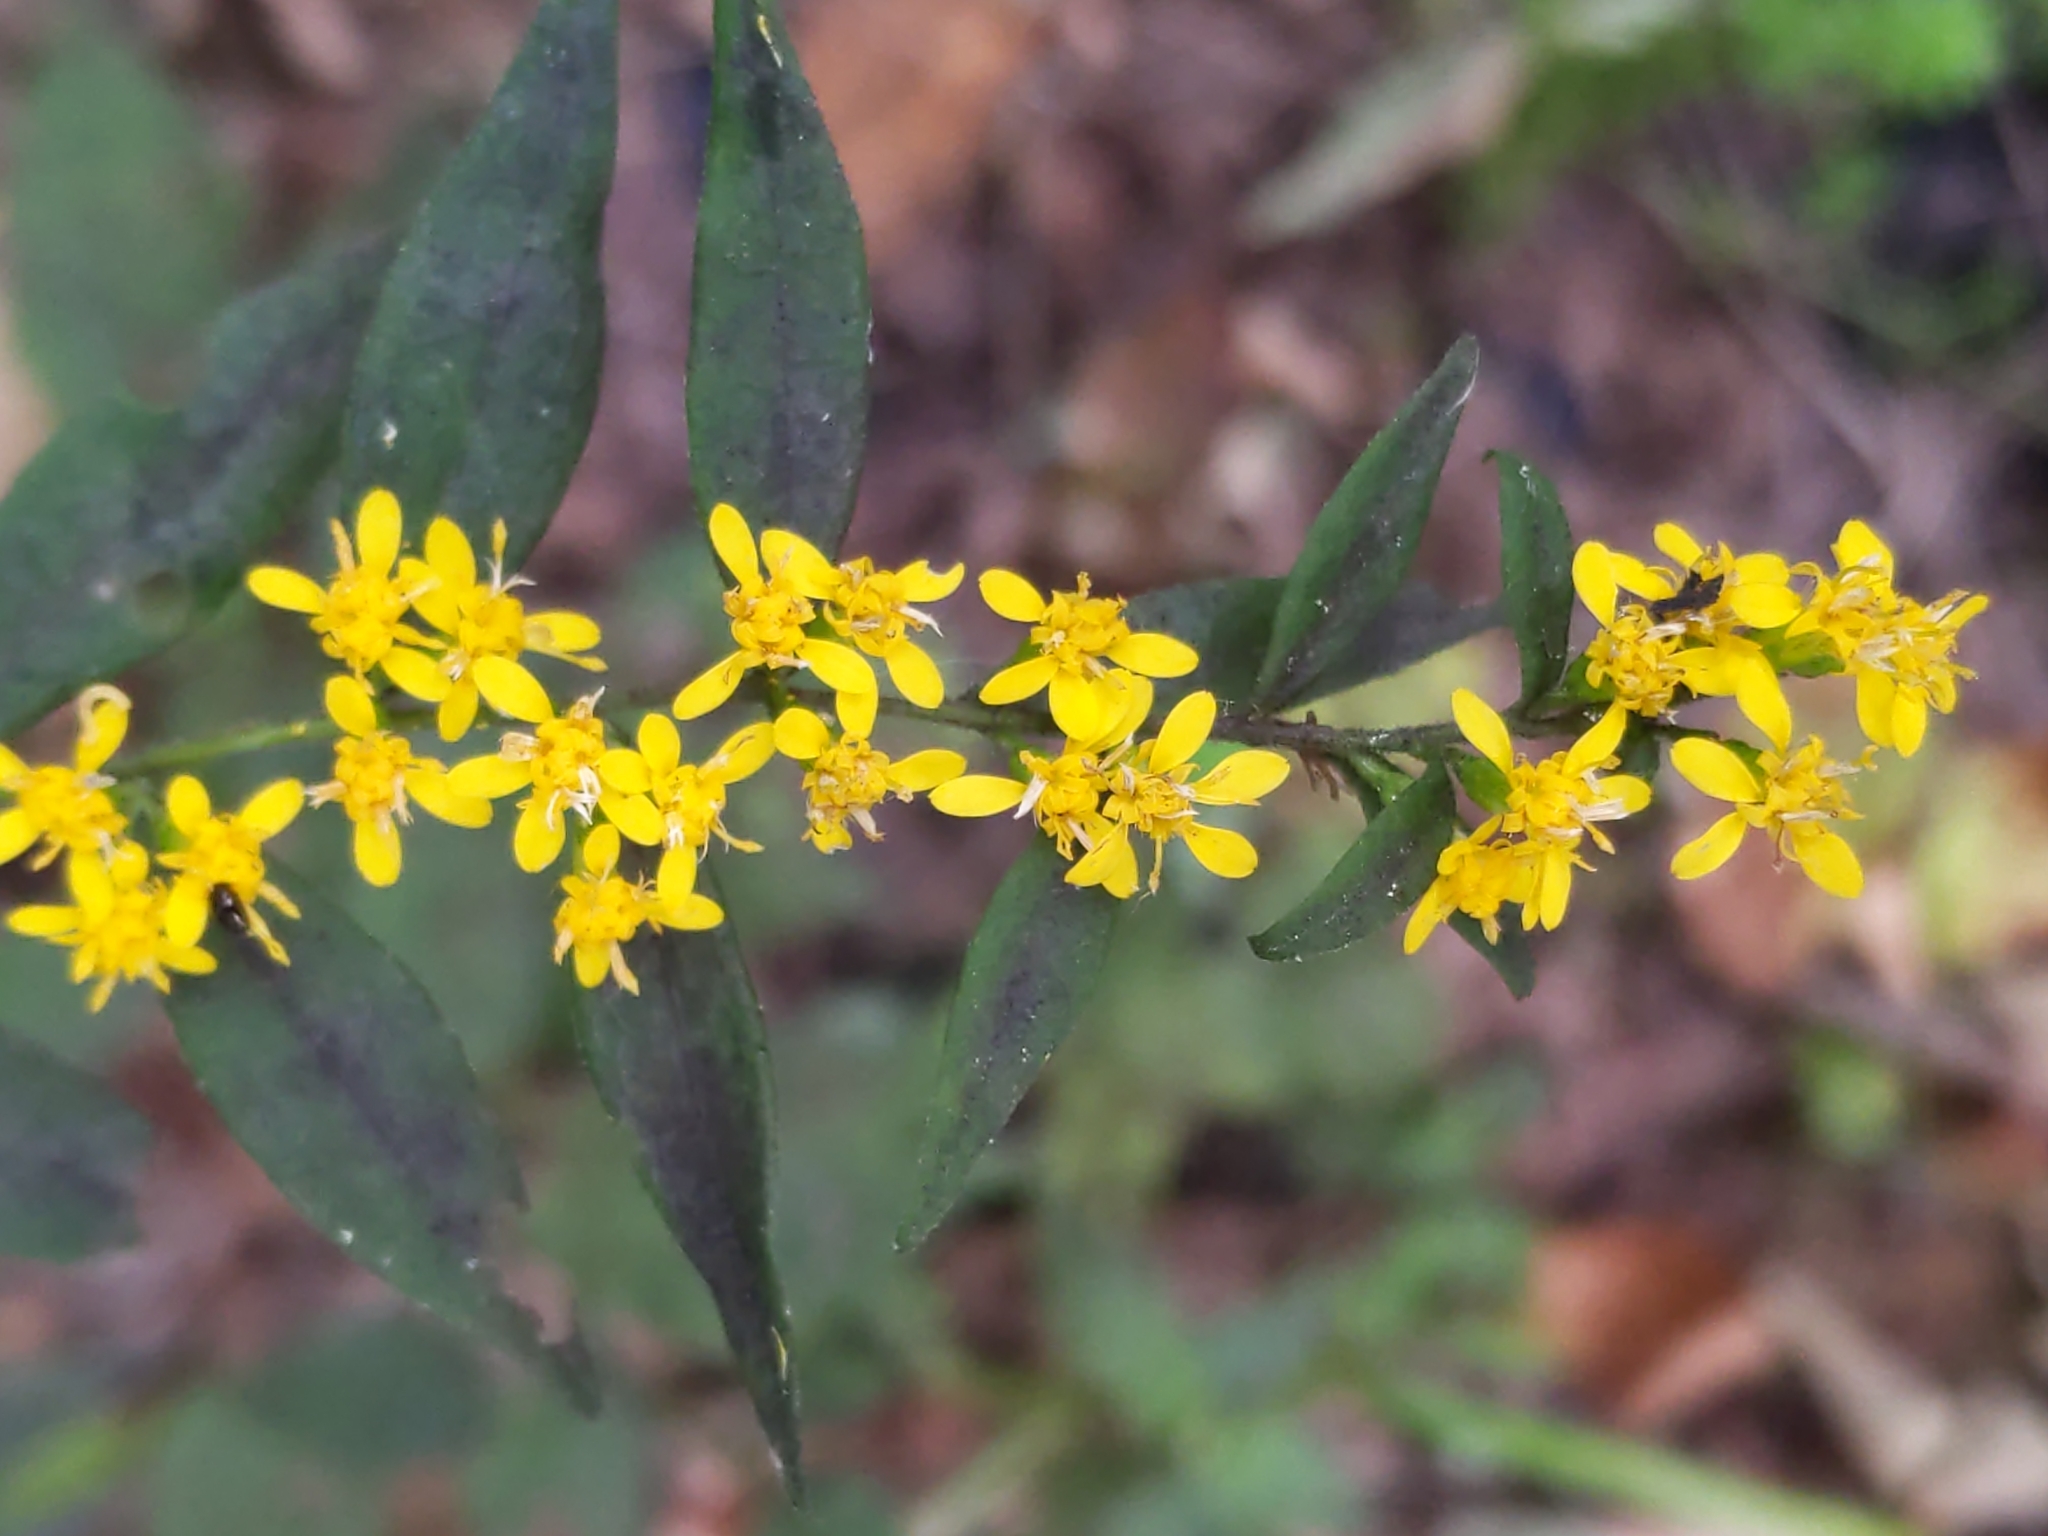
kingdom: Plantae
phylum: Tracheophyta
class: Magnoliopsida
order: Asterales
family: Asteraceae
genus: Solidago
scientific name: Solidago caesia
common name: Woodland goldenrod
